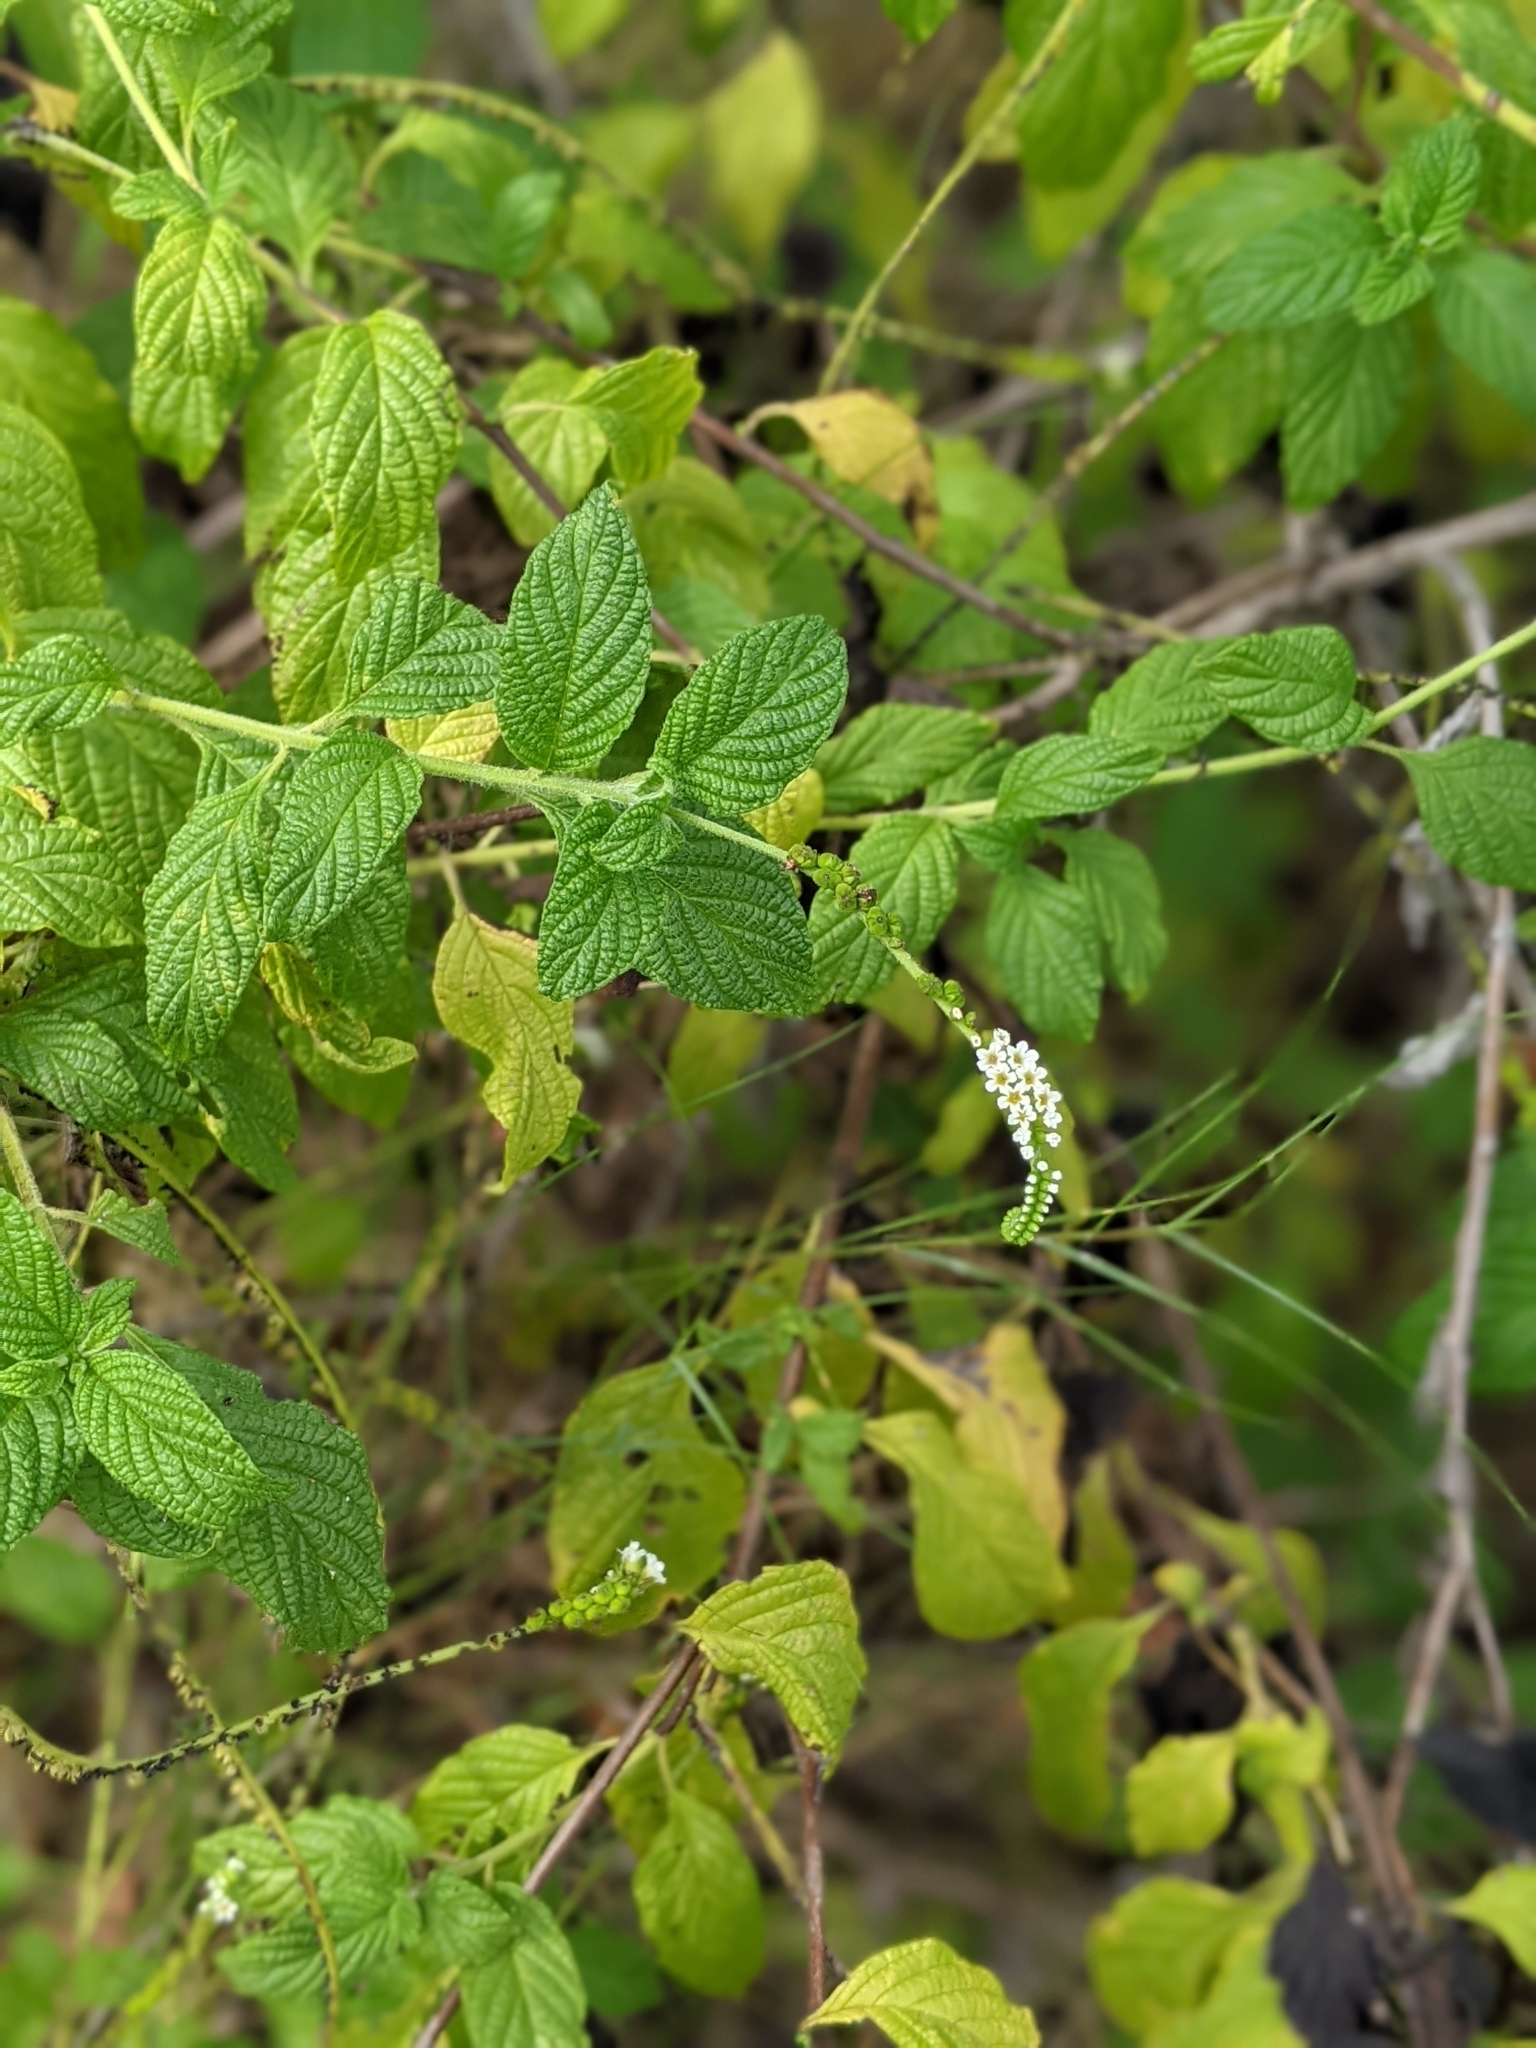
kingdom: Plantae
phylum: Tracheophyta
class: Magnoliopsida
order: Boraginales
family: Heliotropiaceae
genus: Heliotropium
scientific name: Heliotropium angiospermum
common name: Eye bright
